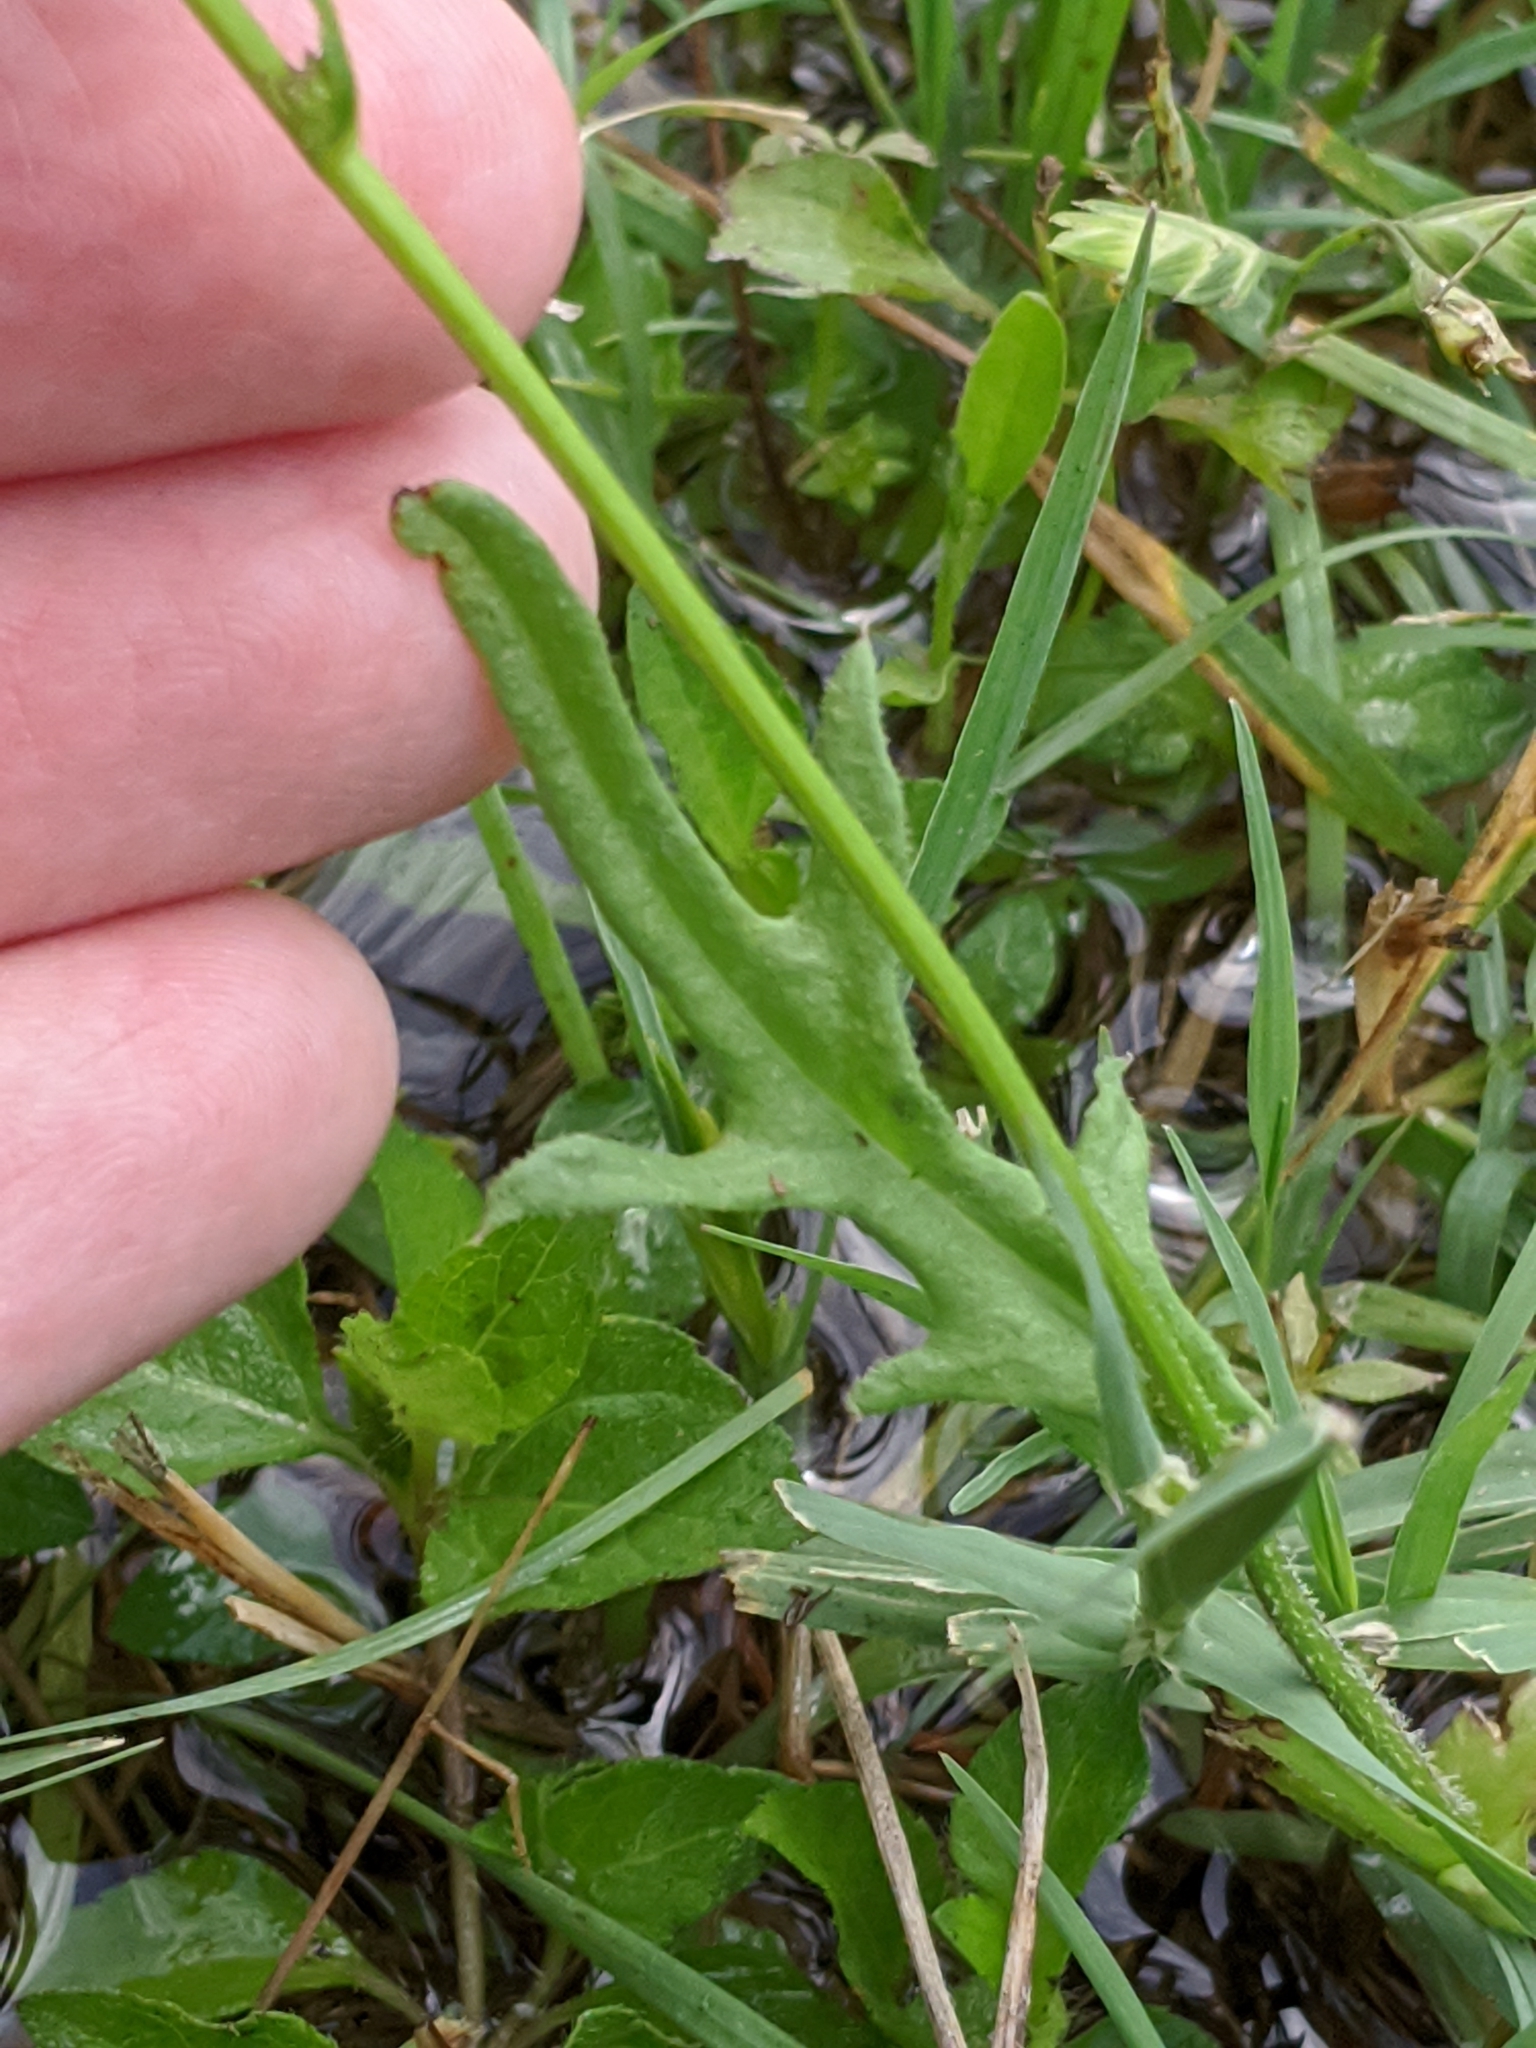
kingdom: Plantae
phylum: Tracheophyta
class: Magnoliopsida
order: Asterales
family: Asteraceae
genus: Pyrrhopappus
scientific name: Pyrrhopappus pauciflorus
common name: Texas false dandelion
